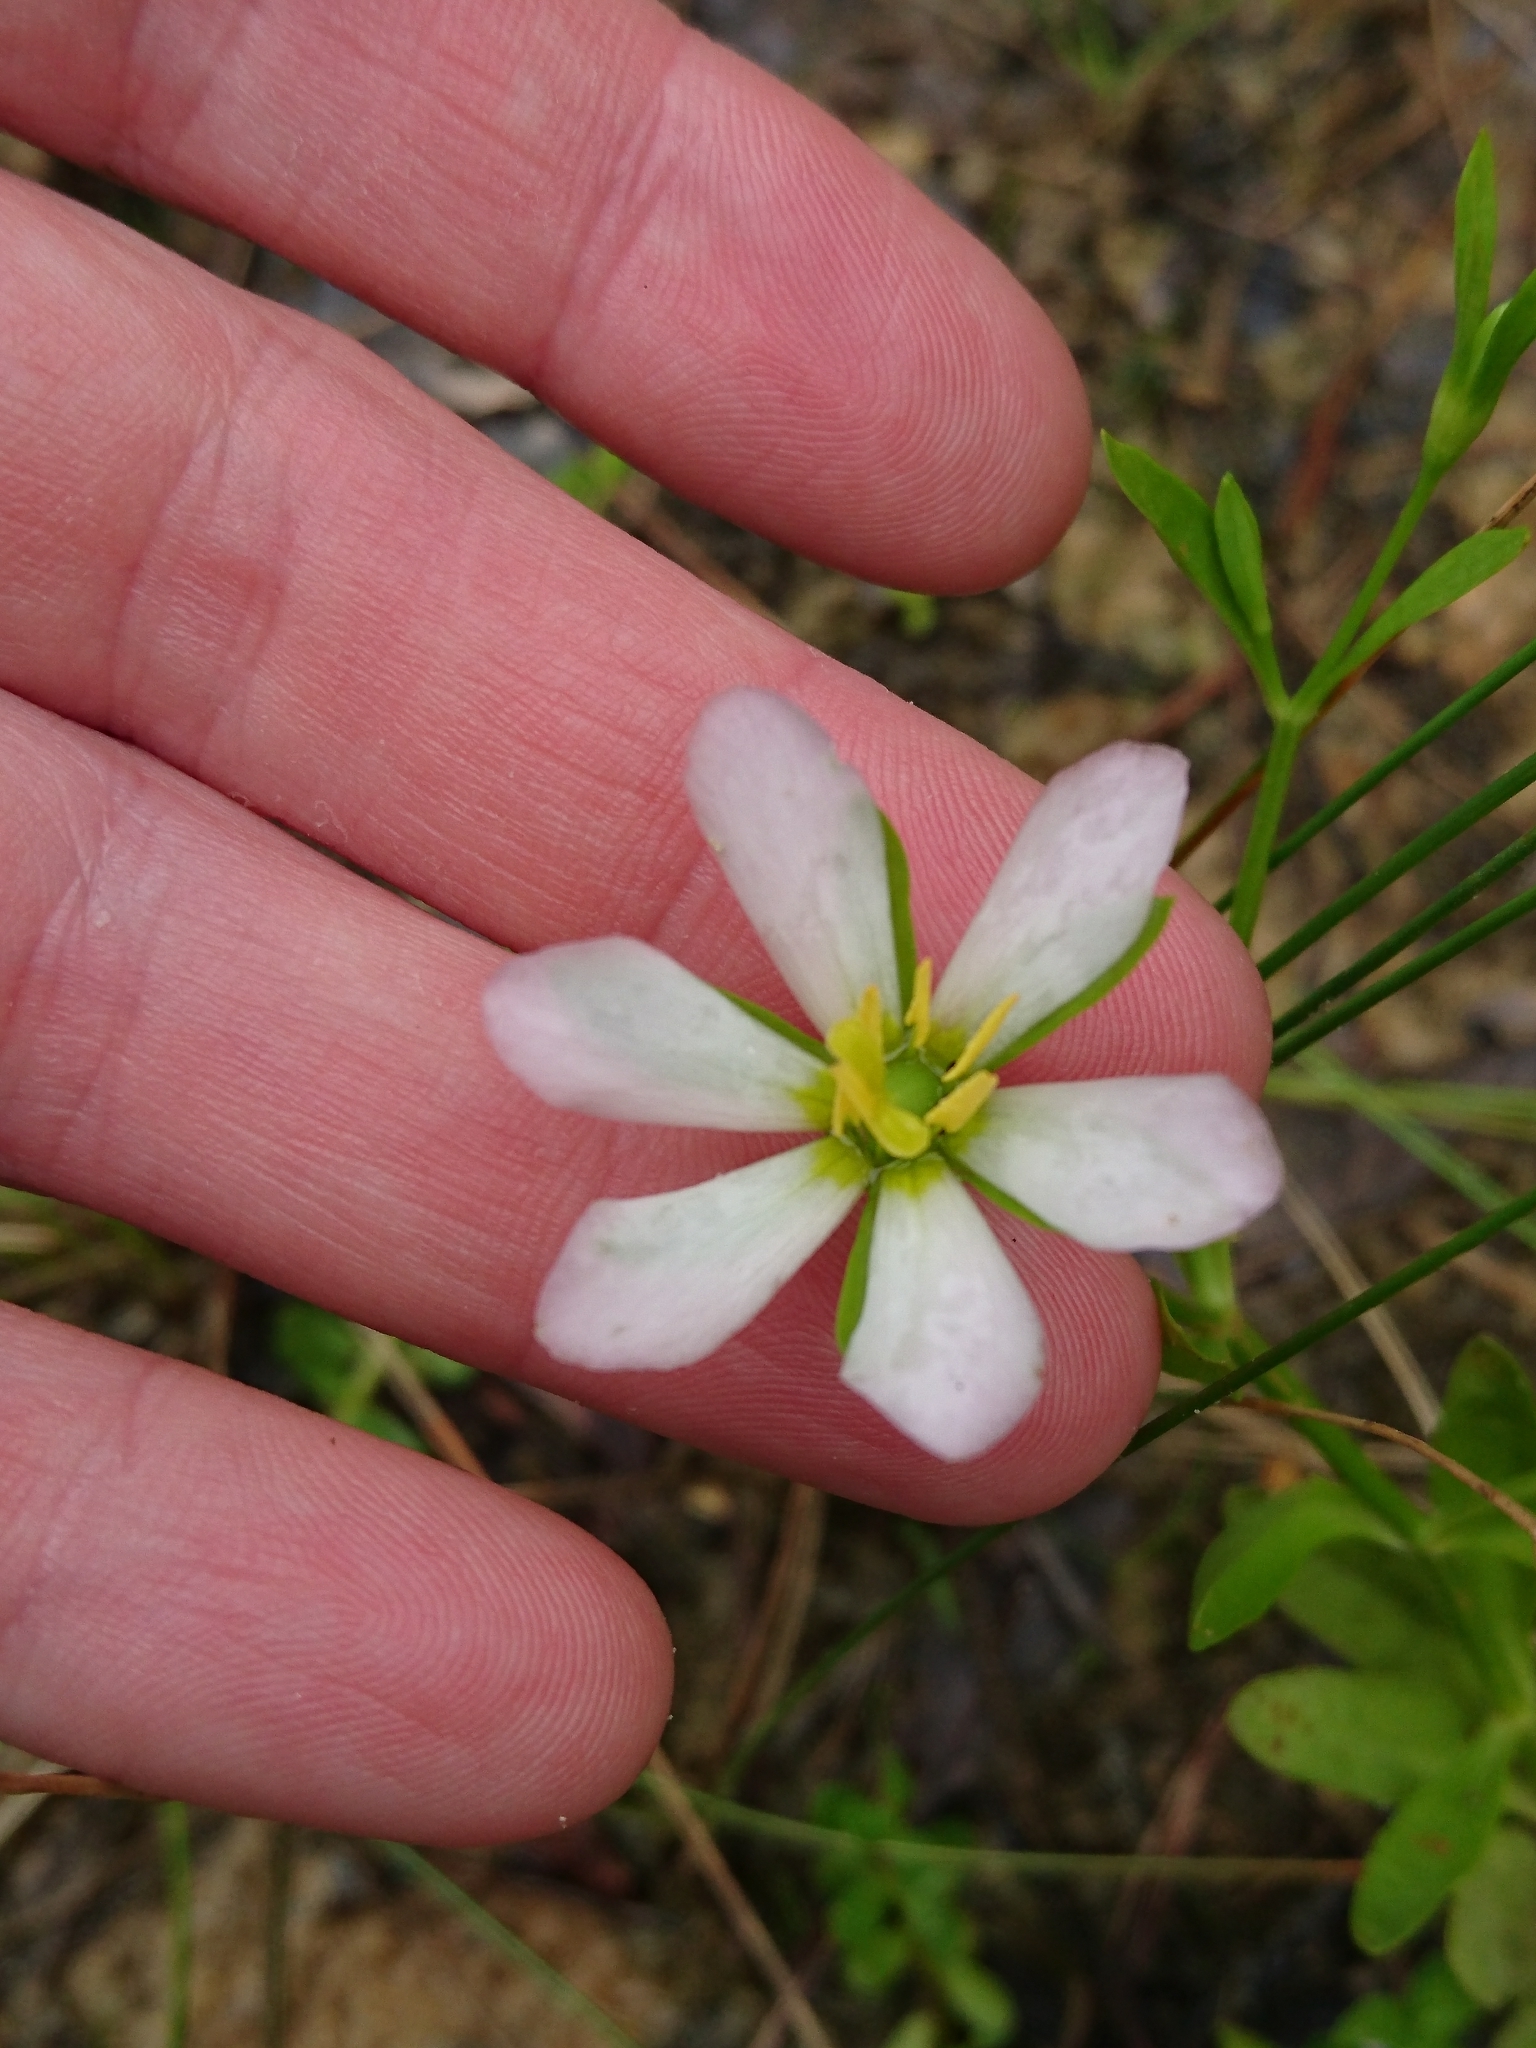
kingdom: Plantae
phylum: Tracheophyta
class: Magnoliopsida
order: Gentianales
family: Gentianaceae
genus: Sabatia
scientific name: Sabatia calycina
